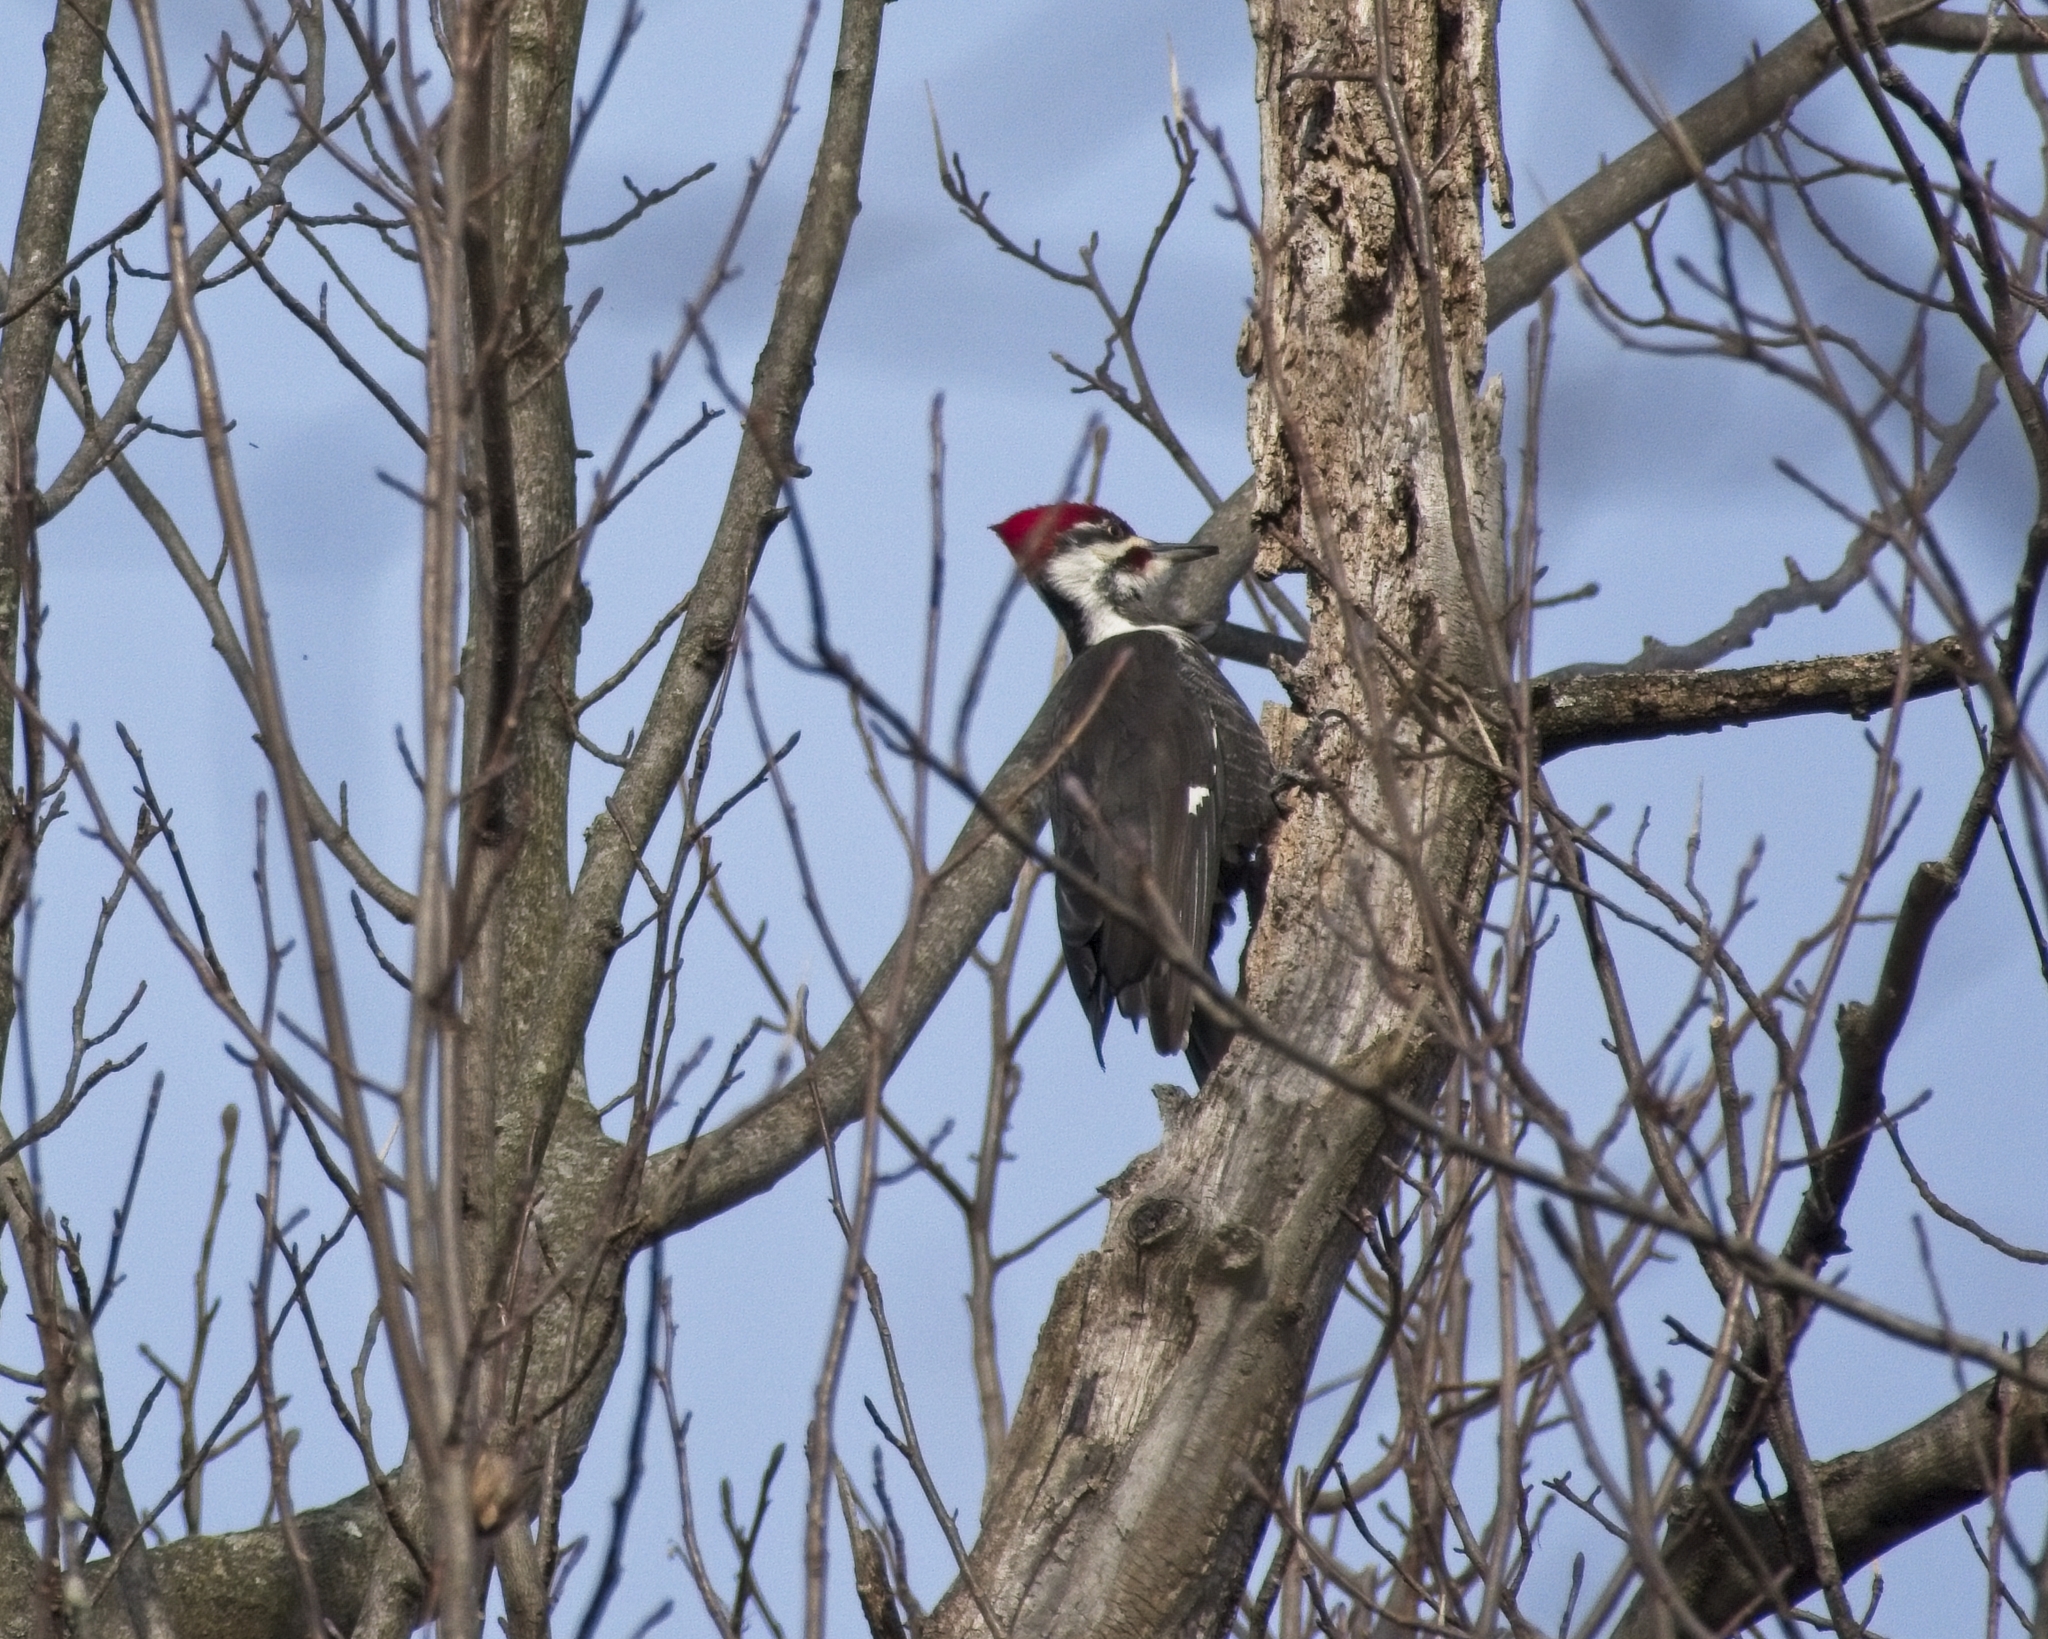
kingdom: Animalia
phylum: Chordata
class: Aves
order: Piciformes
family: Picidae
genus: Dryocopus
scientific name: Dryocopus pileatus
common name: Pileated woodpecker
